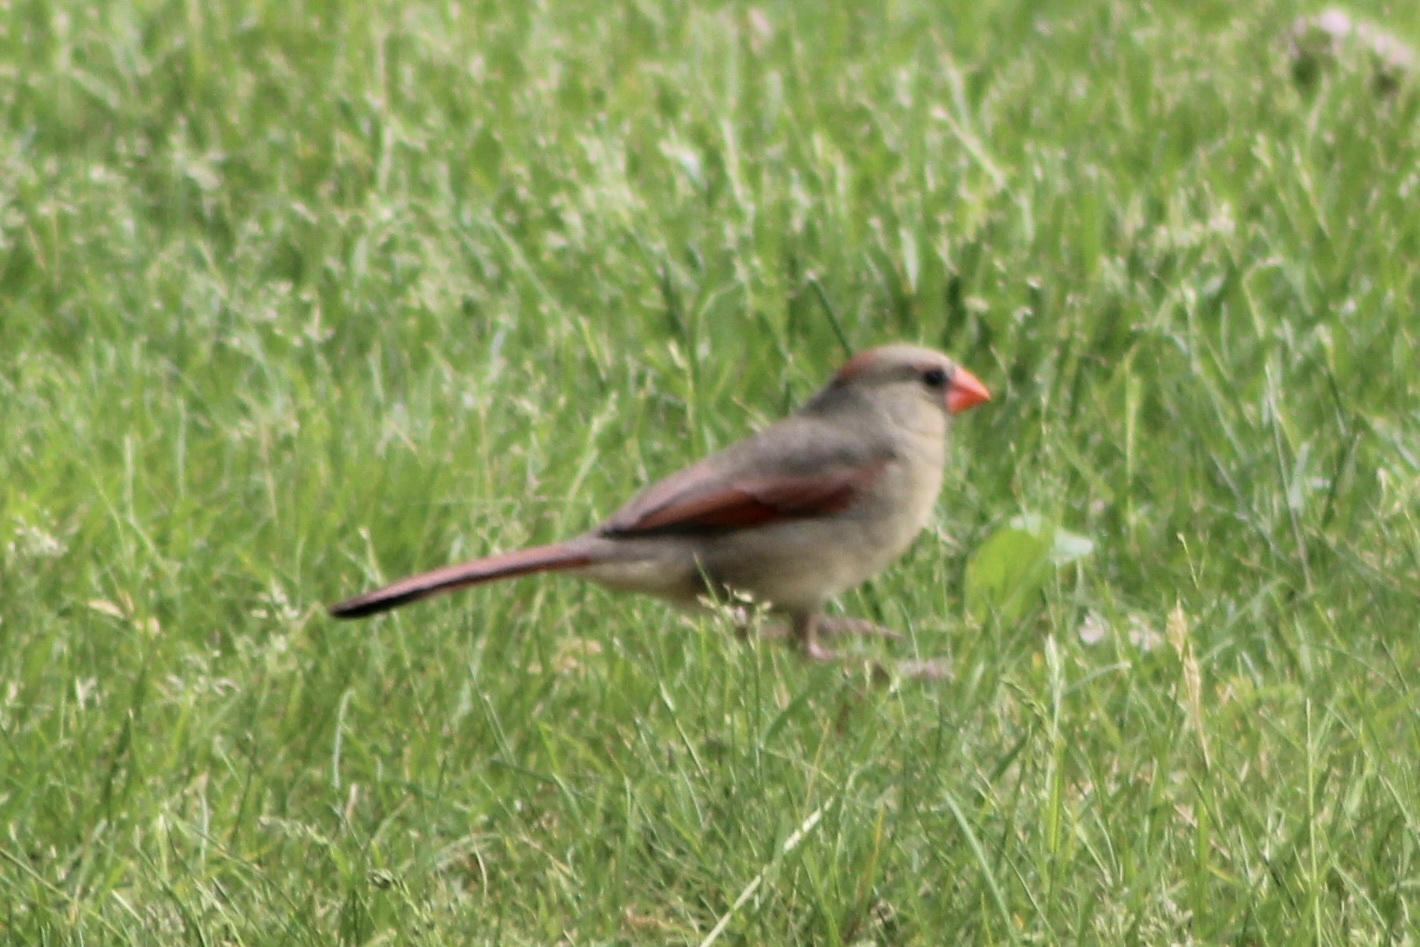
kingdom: Animalia
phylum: Chordata
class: Aves
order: Passeriformes
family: Cardinalidae
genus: Cardinalis
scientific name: Cardinalis cardinalis
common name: Northern cardinal
